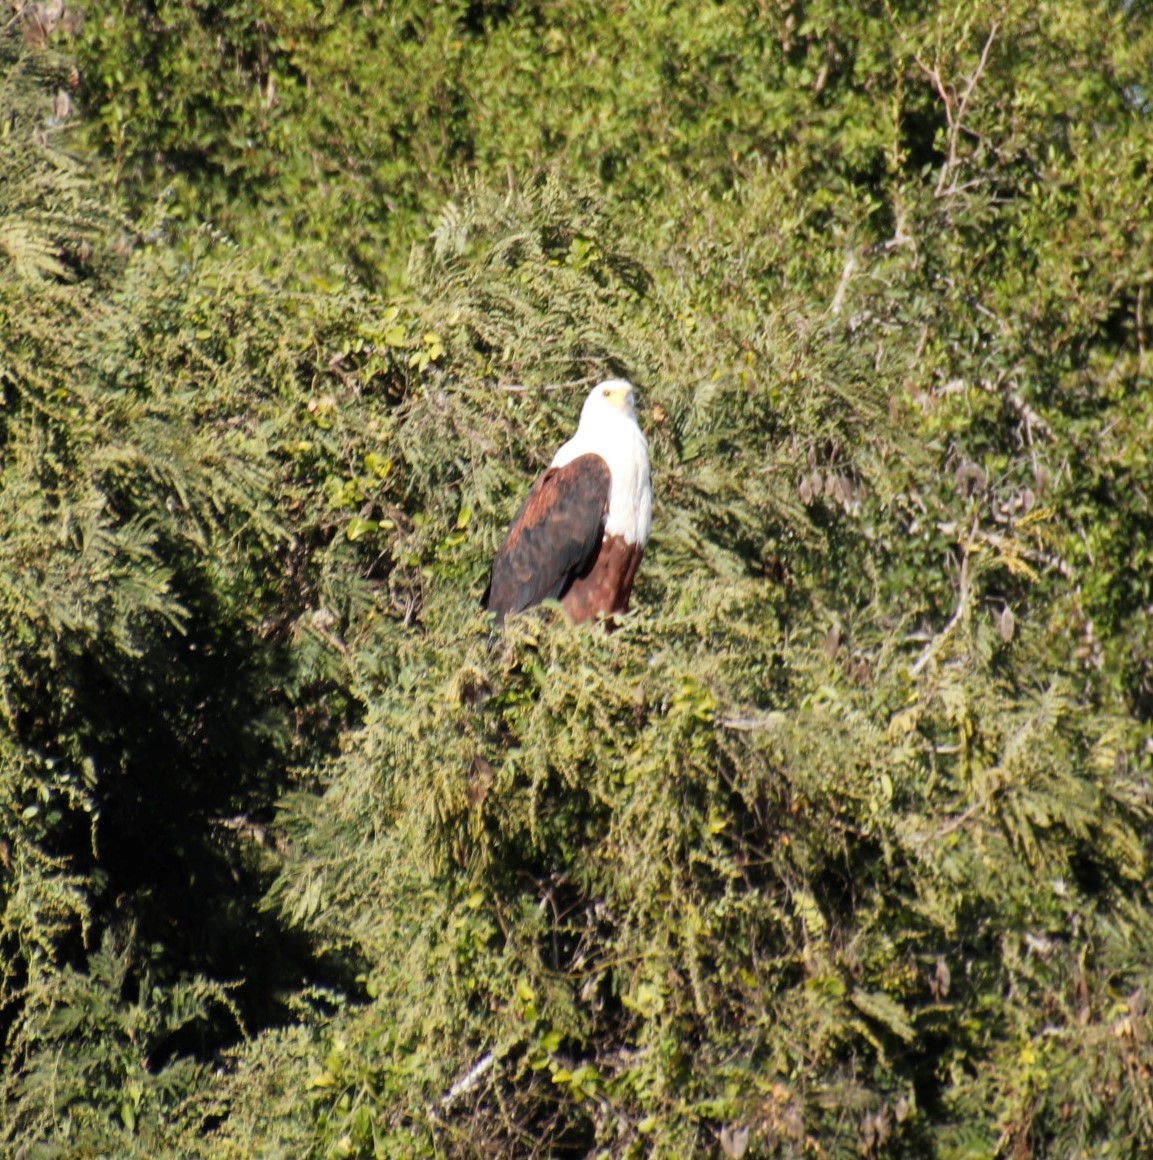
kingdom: Animalia
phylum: Chordata
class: Aves
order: Accipitriformes
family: Accipitridae
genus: Haliaeetus
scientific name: Haliaeetus vocifer
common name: African fish eagle
